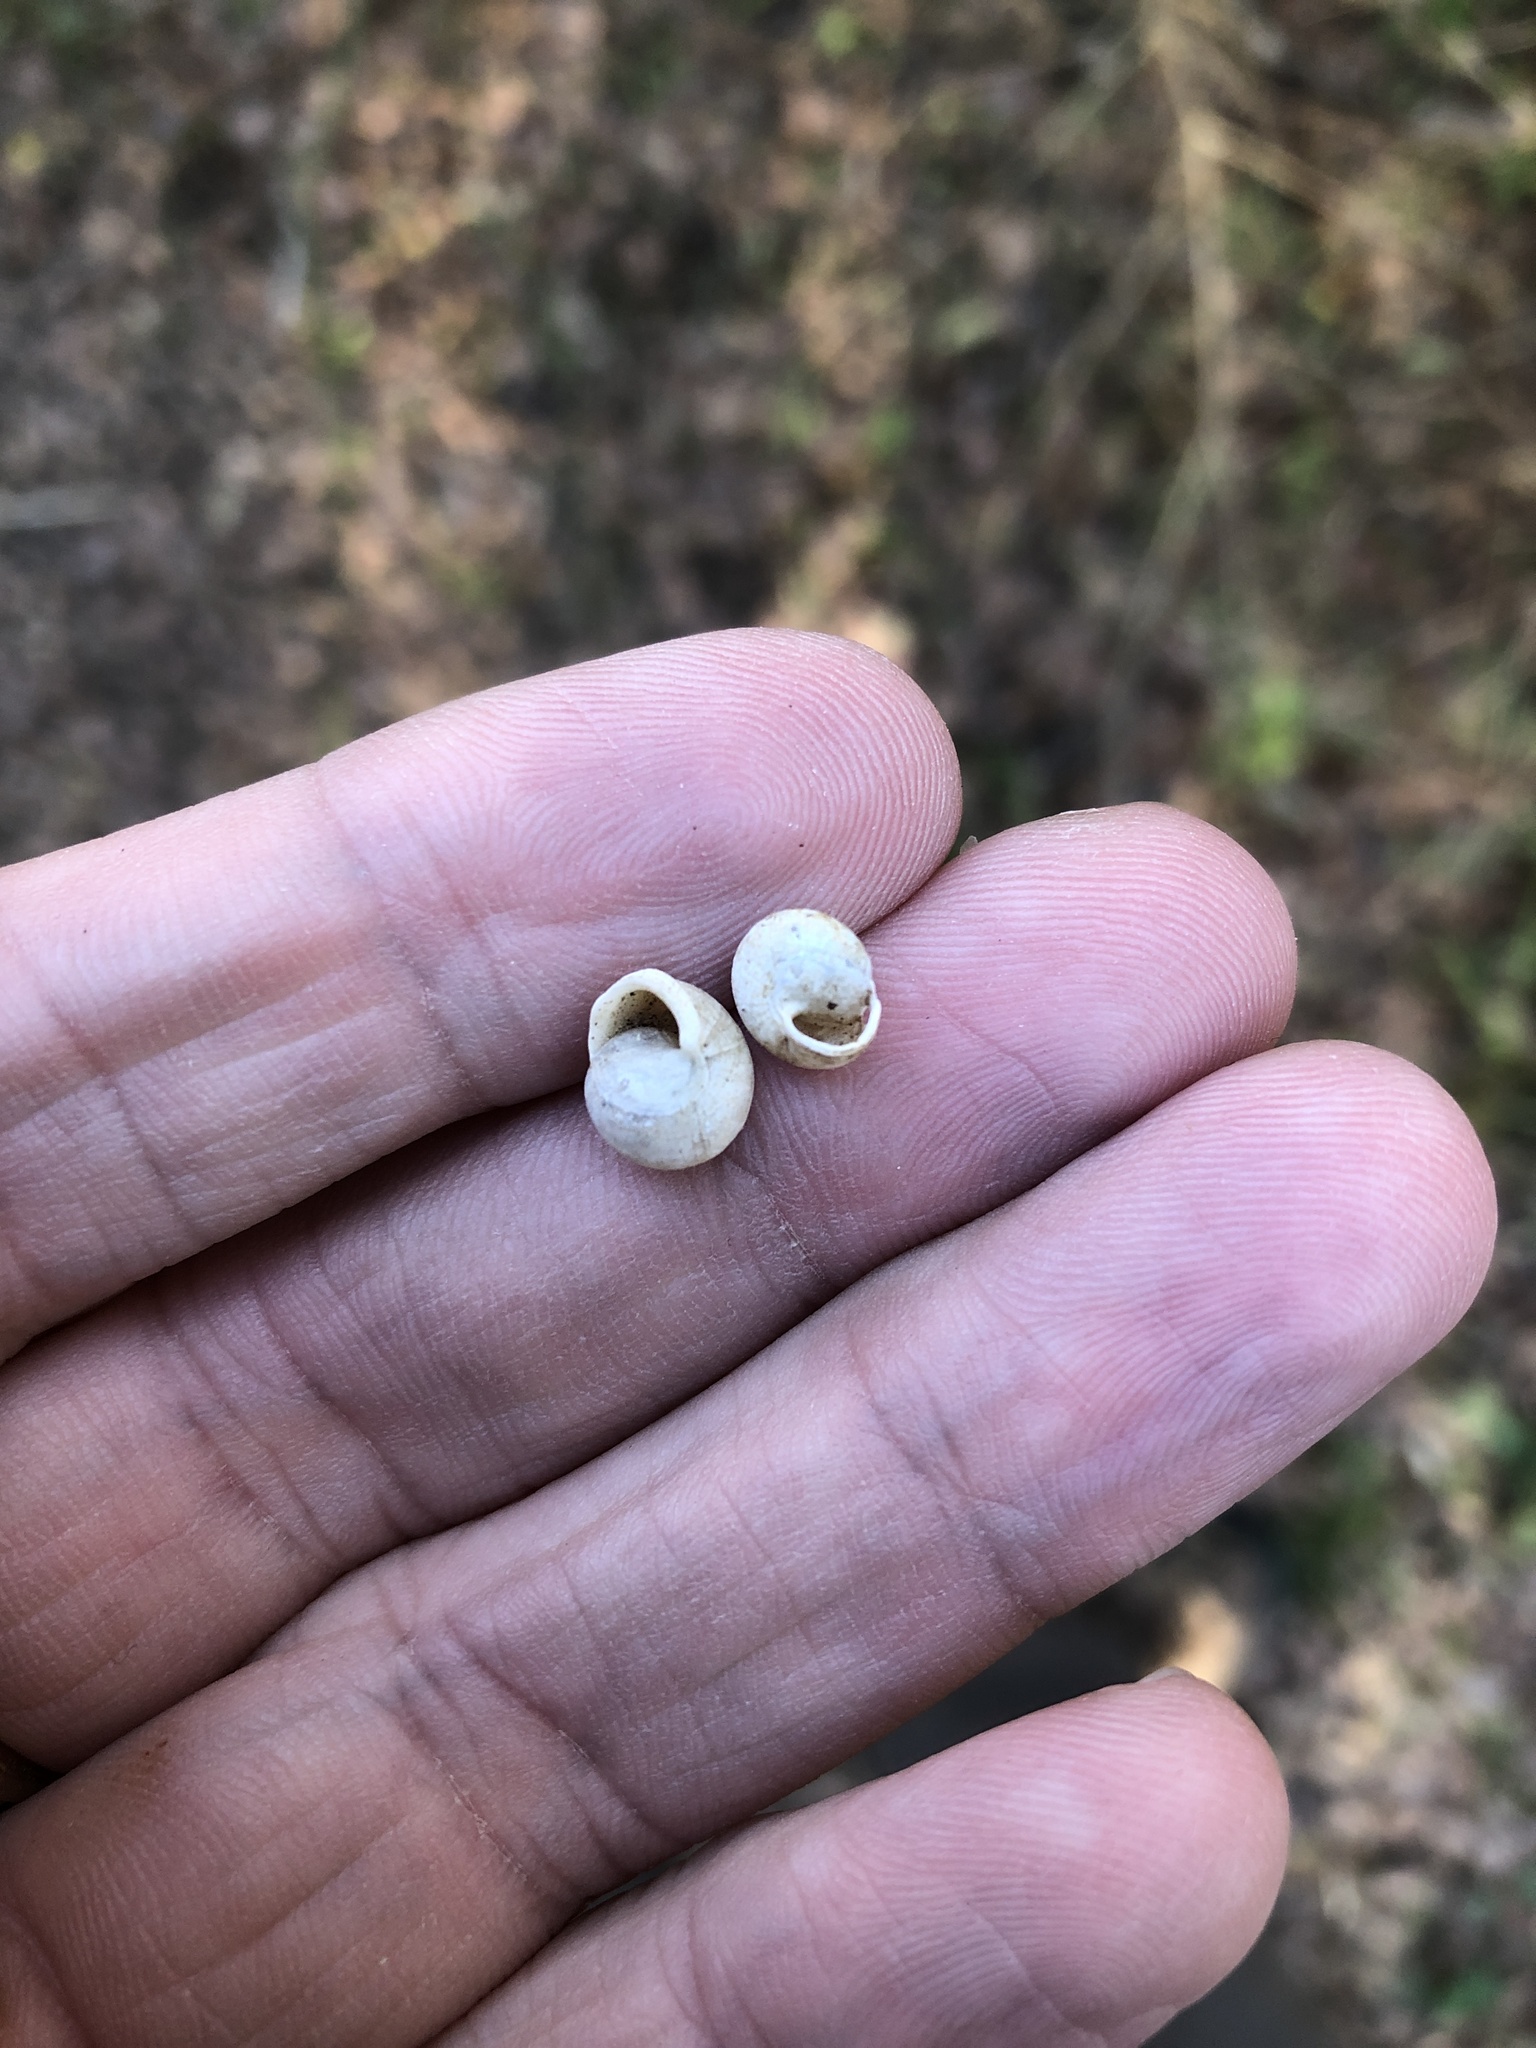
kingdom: Animalia
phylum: Mollusca
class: Gastropoda
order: Cycloneritida
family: Helicinidae
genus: Helicina
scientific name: Helicina orbiculata
